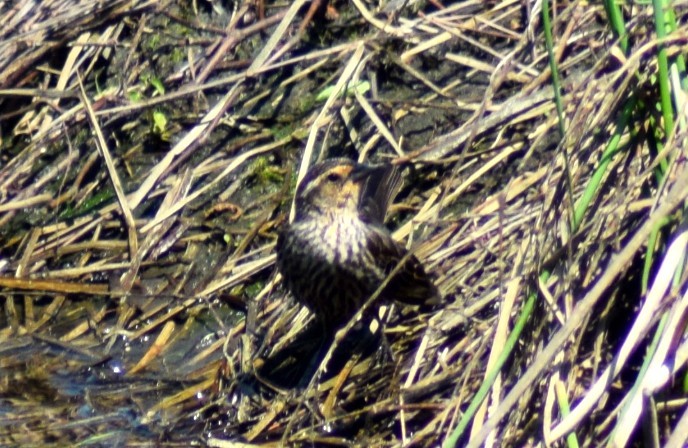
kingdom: Animalia
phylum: Chordata
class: Aves
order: Passeriformes
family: Icteridae
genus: Agelaius
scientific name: Agelaius phoeniceus
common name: Red-winged blackbird
